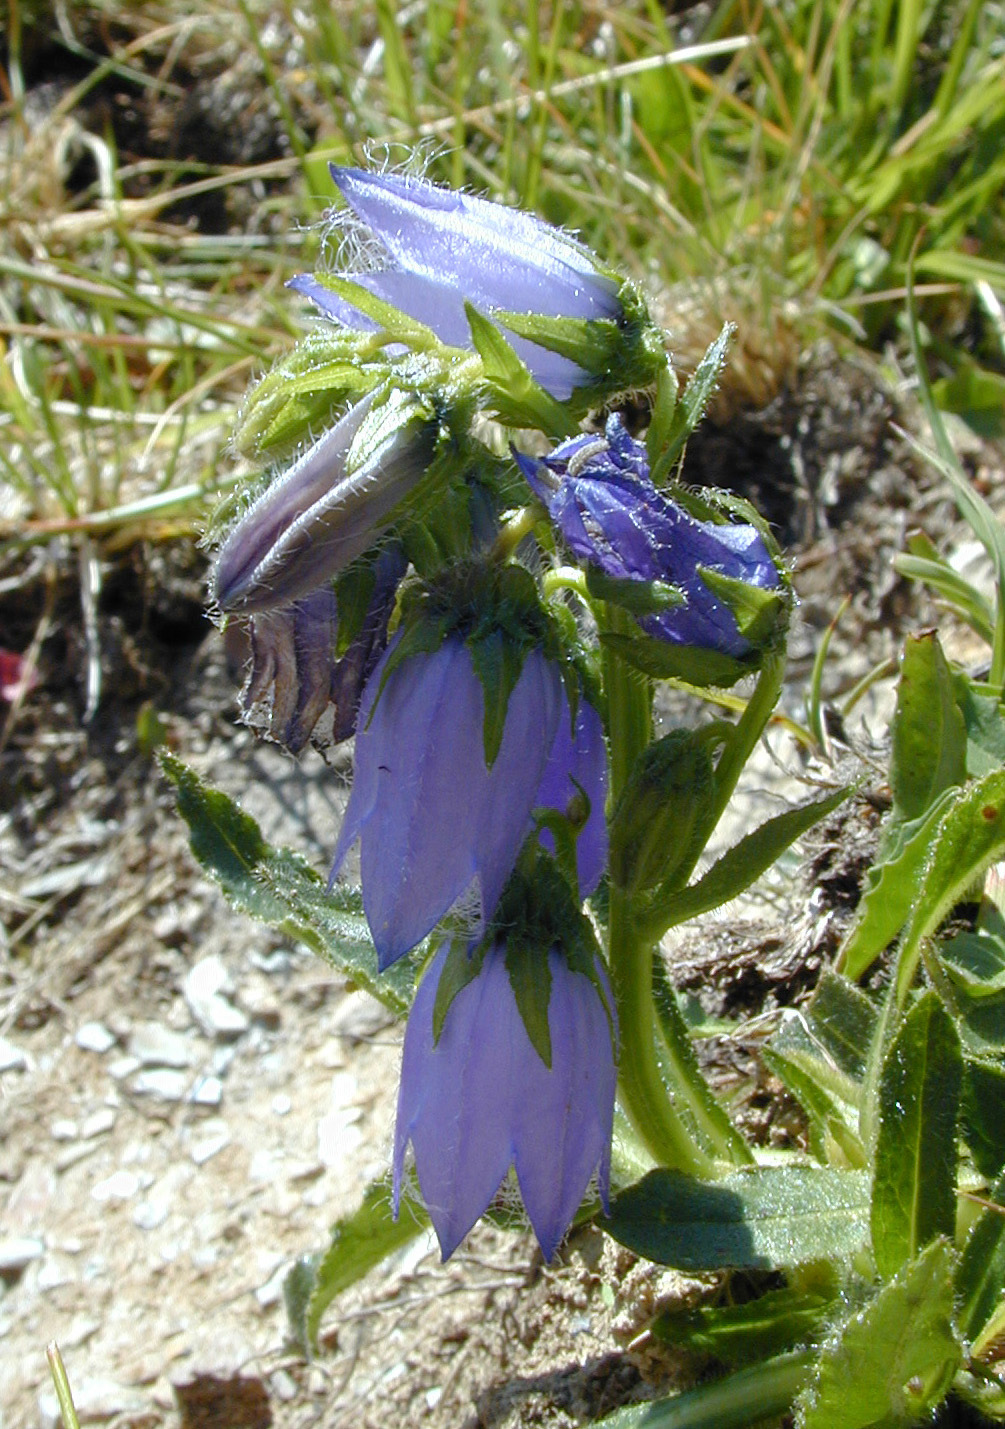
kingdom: Plantae
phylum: Tracheophyta
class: Magnoliopsida
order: Asterales
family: Campanulaceae
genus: Campanula
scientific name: Campanula barbata
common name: Bearded bellflower
